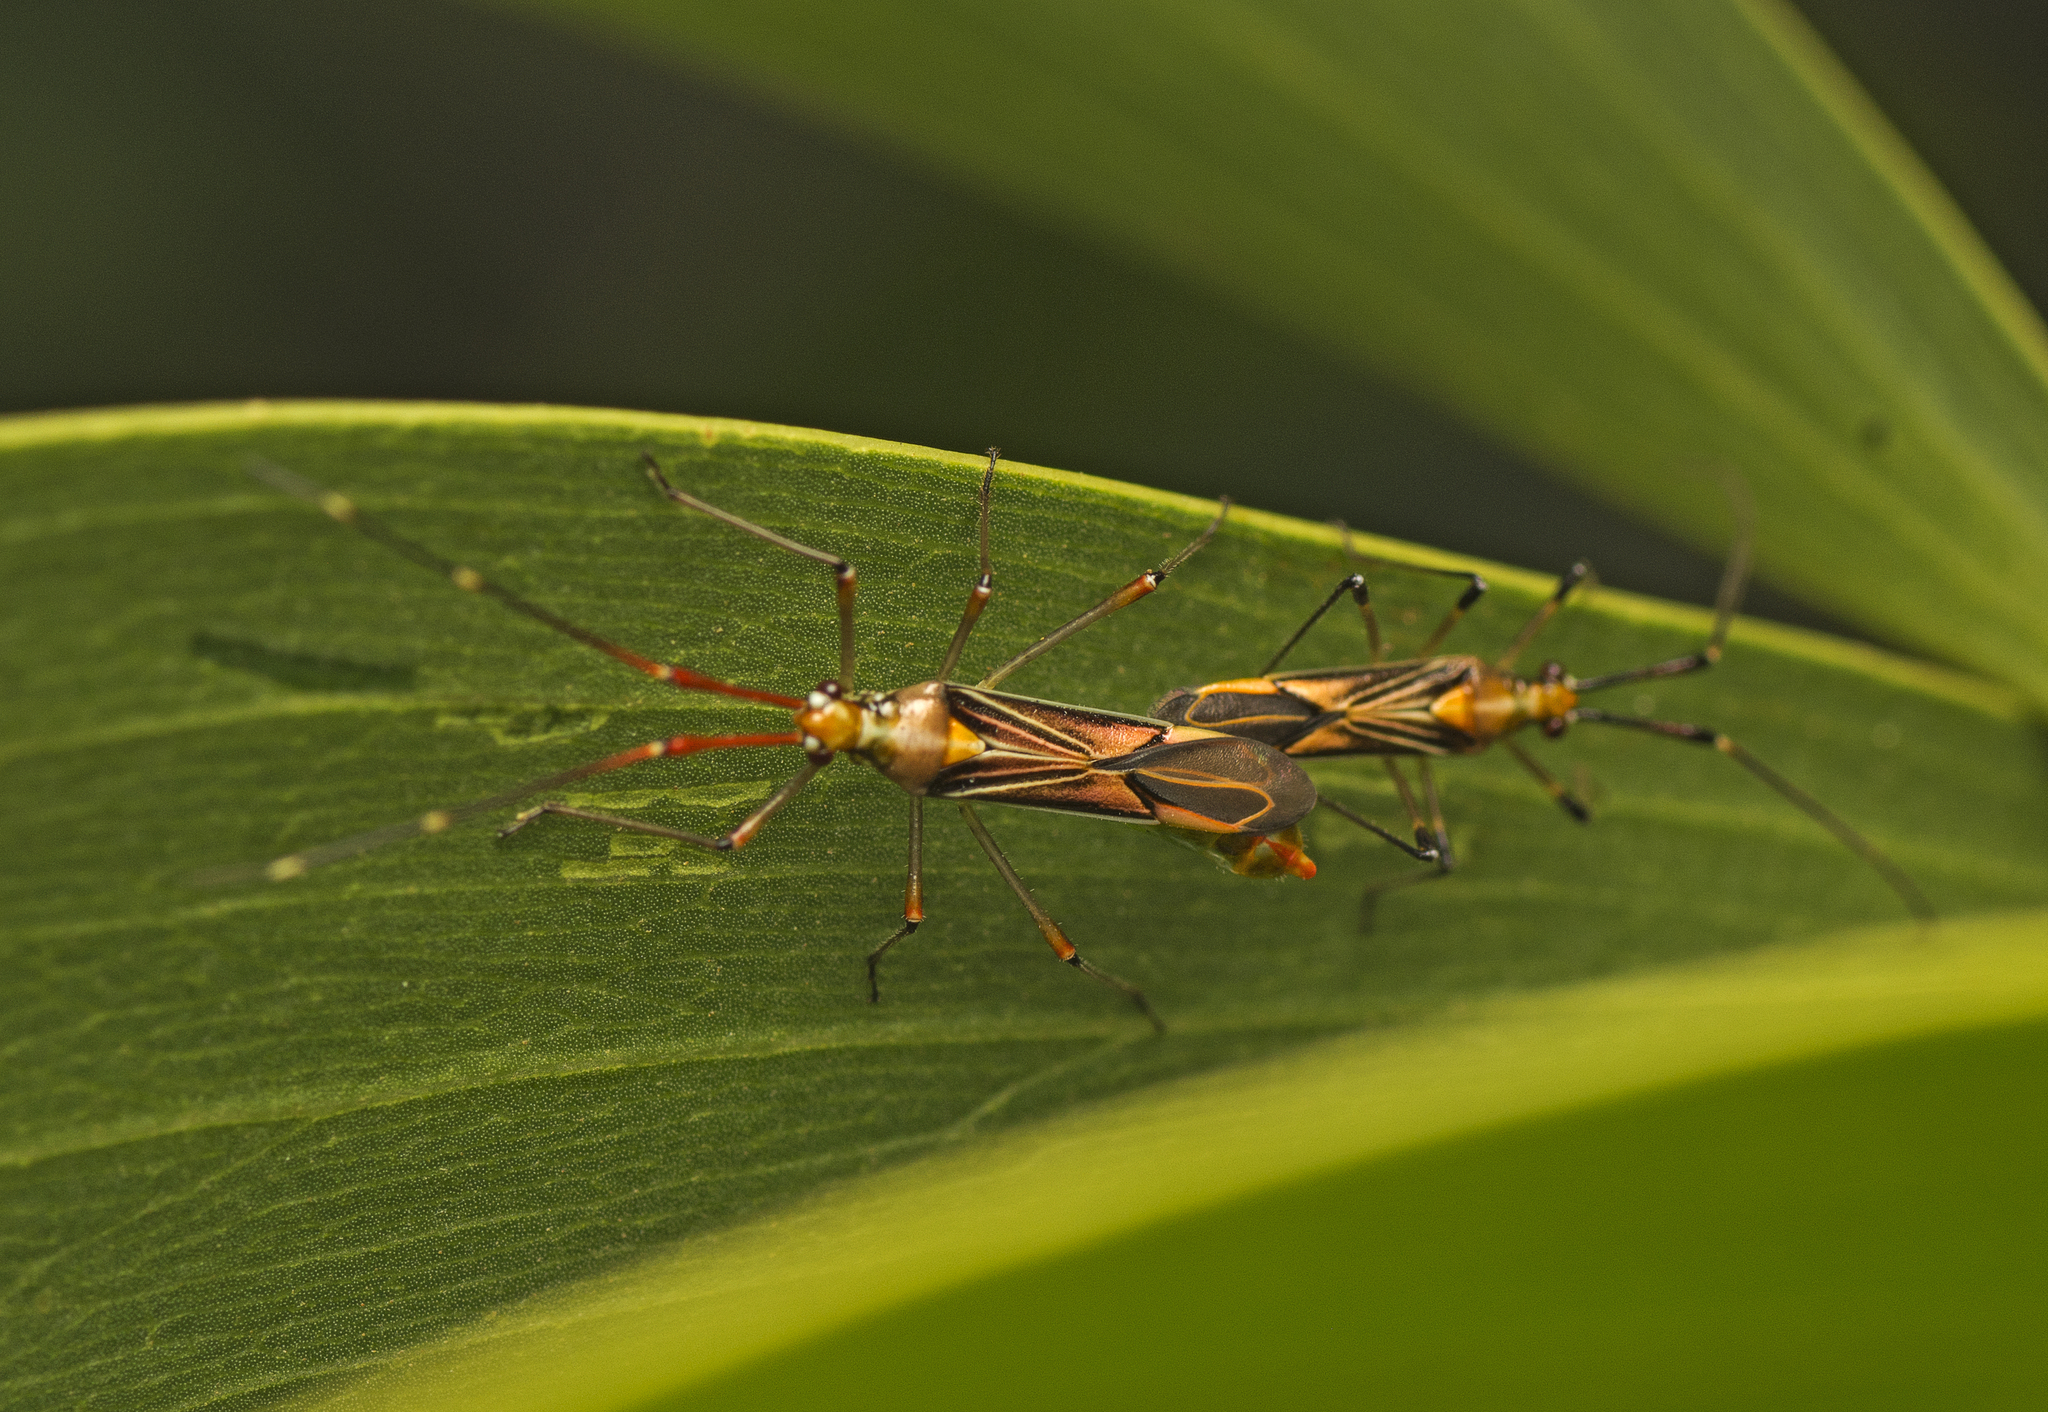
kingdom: Animalia
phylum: Arthropoda
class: Insecta
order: Hemiptera
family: Miridae
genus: Rayieria
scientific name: Rayieria
